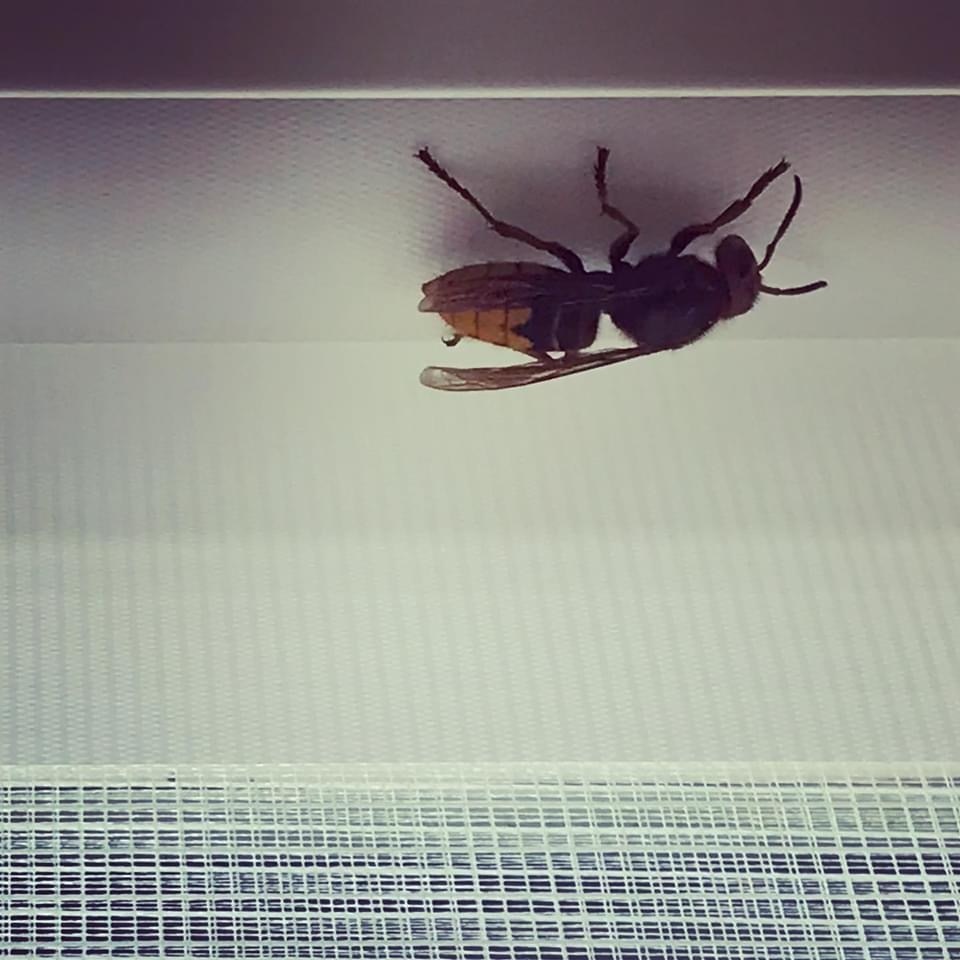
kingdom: Animalia
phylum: Arthropoda
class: Insecta
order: Hymenoptera
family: Vespidae
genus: Vespa
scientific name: Vespa crabro
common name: Hornet
